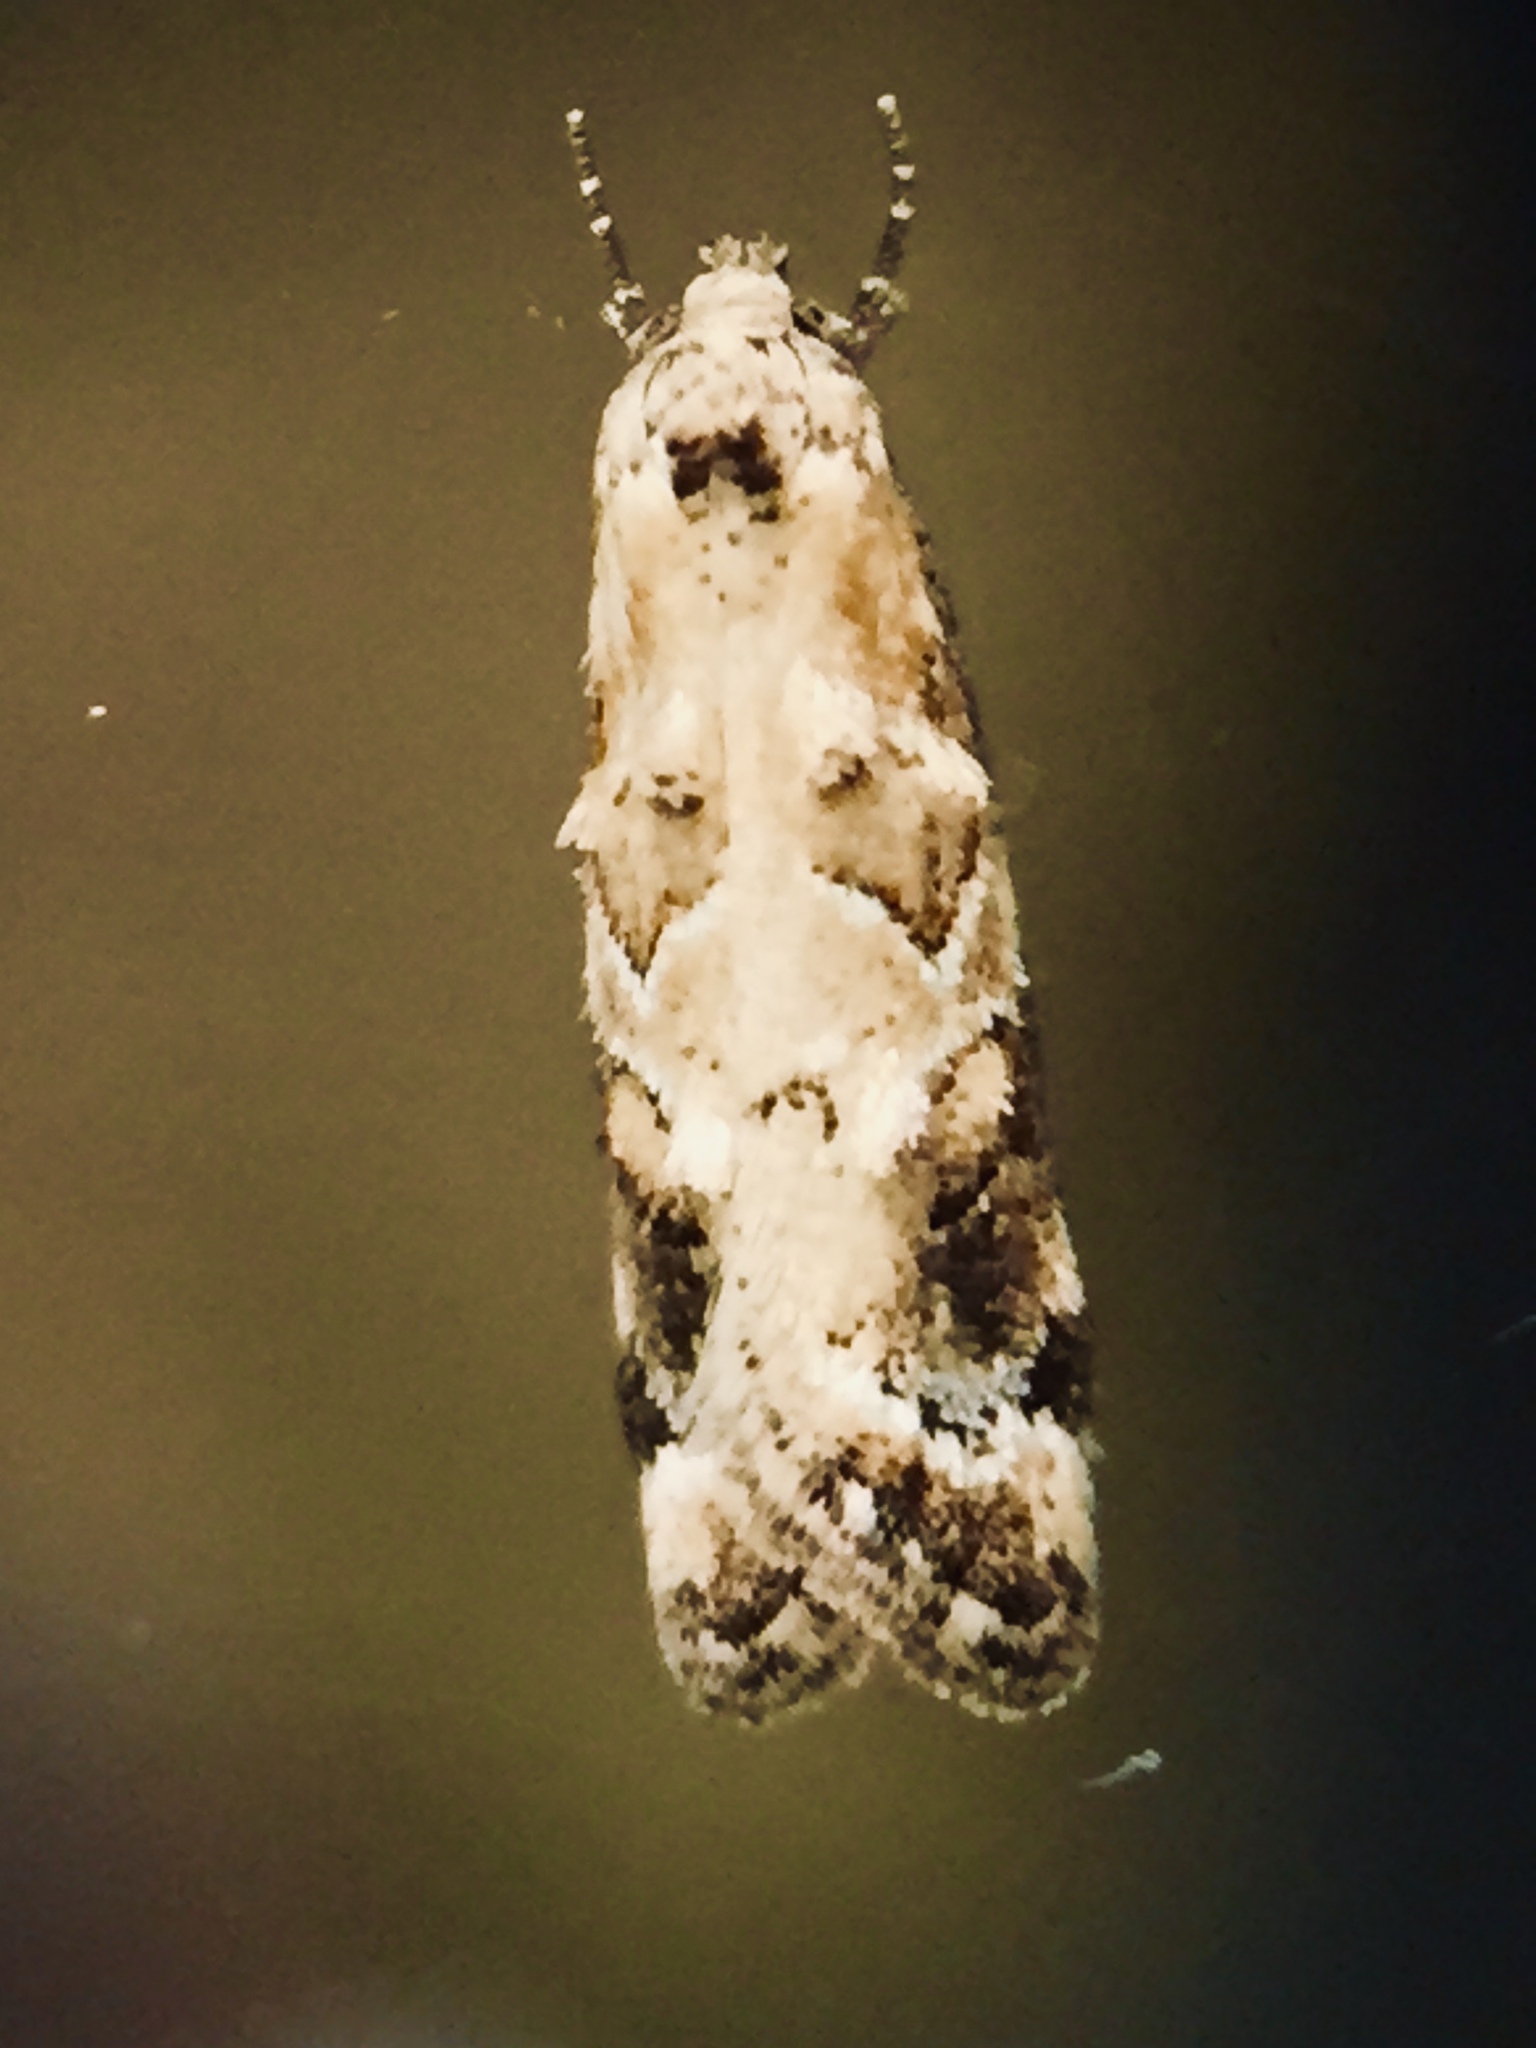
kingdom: Animalia
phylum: Arthropoda
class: Insecta
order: Lepidoptera
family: Oecophoridae
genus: Trachypepla
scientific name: Trachypepla aspidephora
